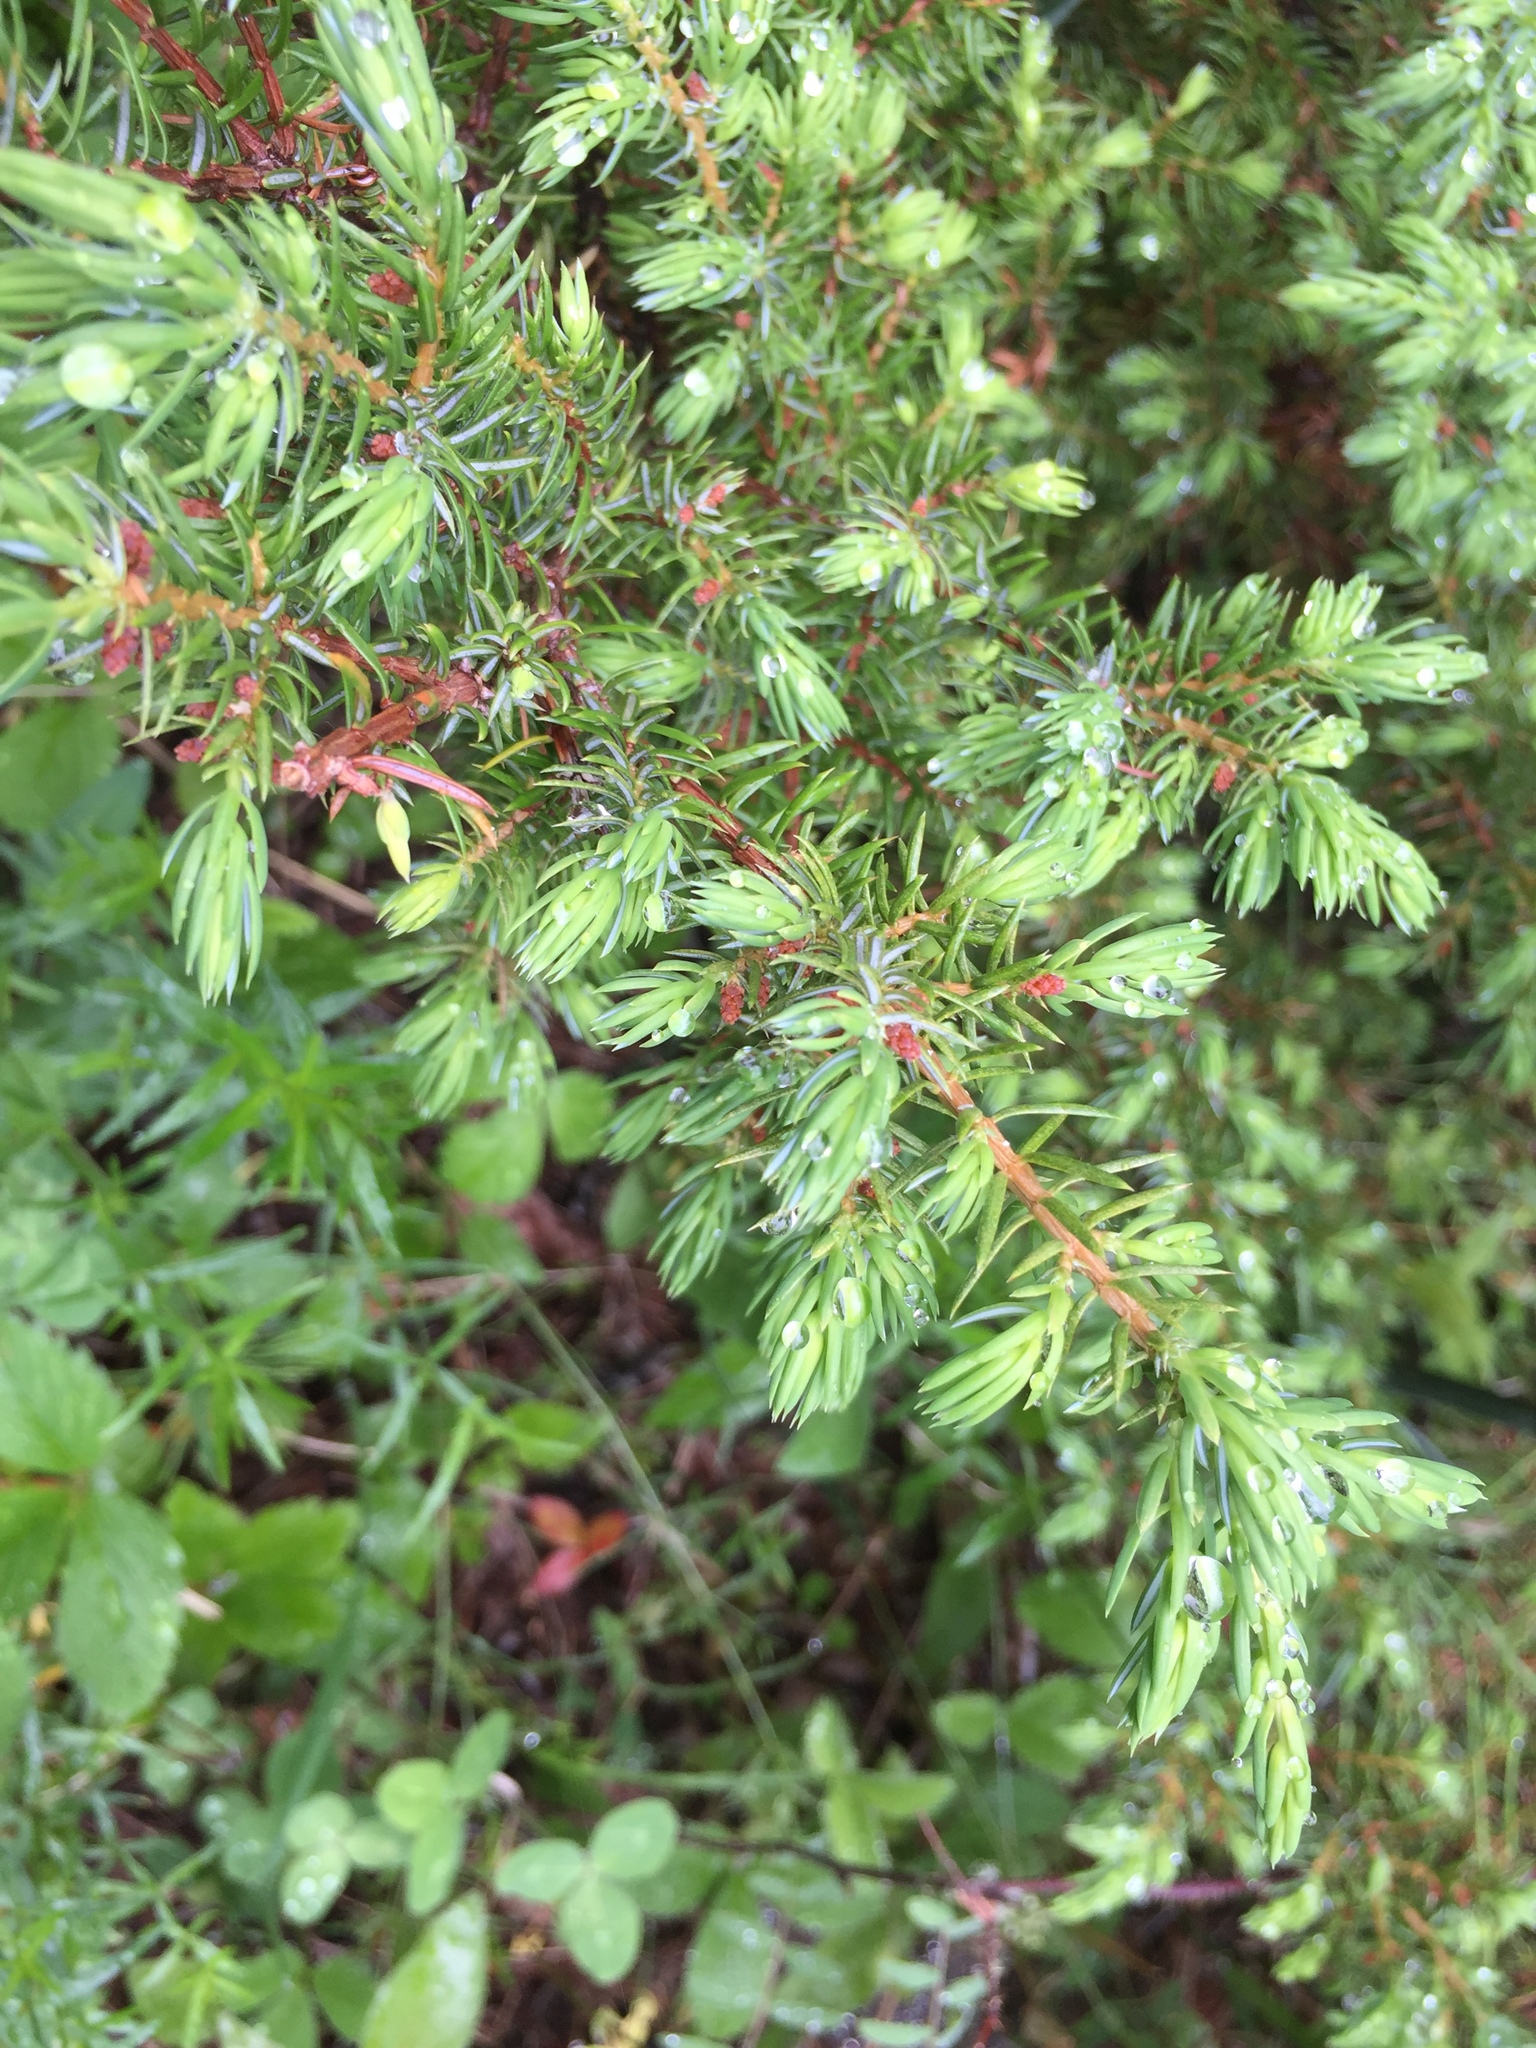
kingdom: Plantae
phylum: Tracheophyta
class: Pinopsida
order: Pinales
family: Pinaceae
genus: Picea
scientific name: Picea mariana
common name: Black spruce
